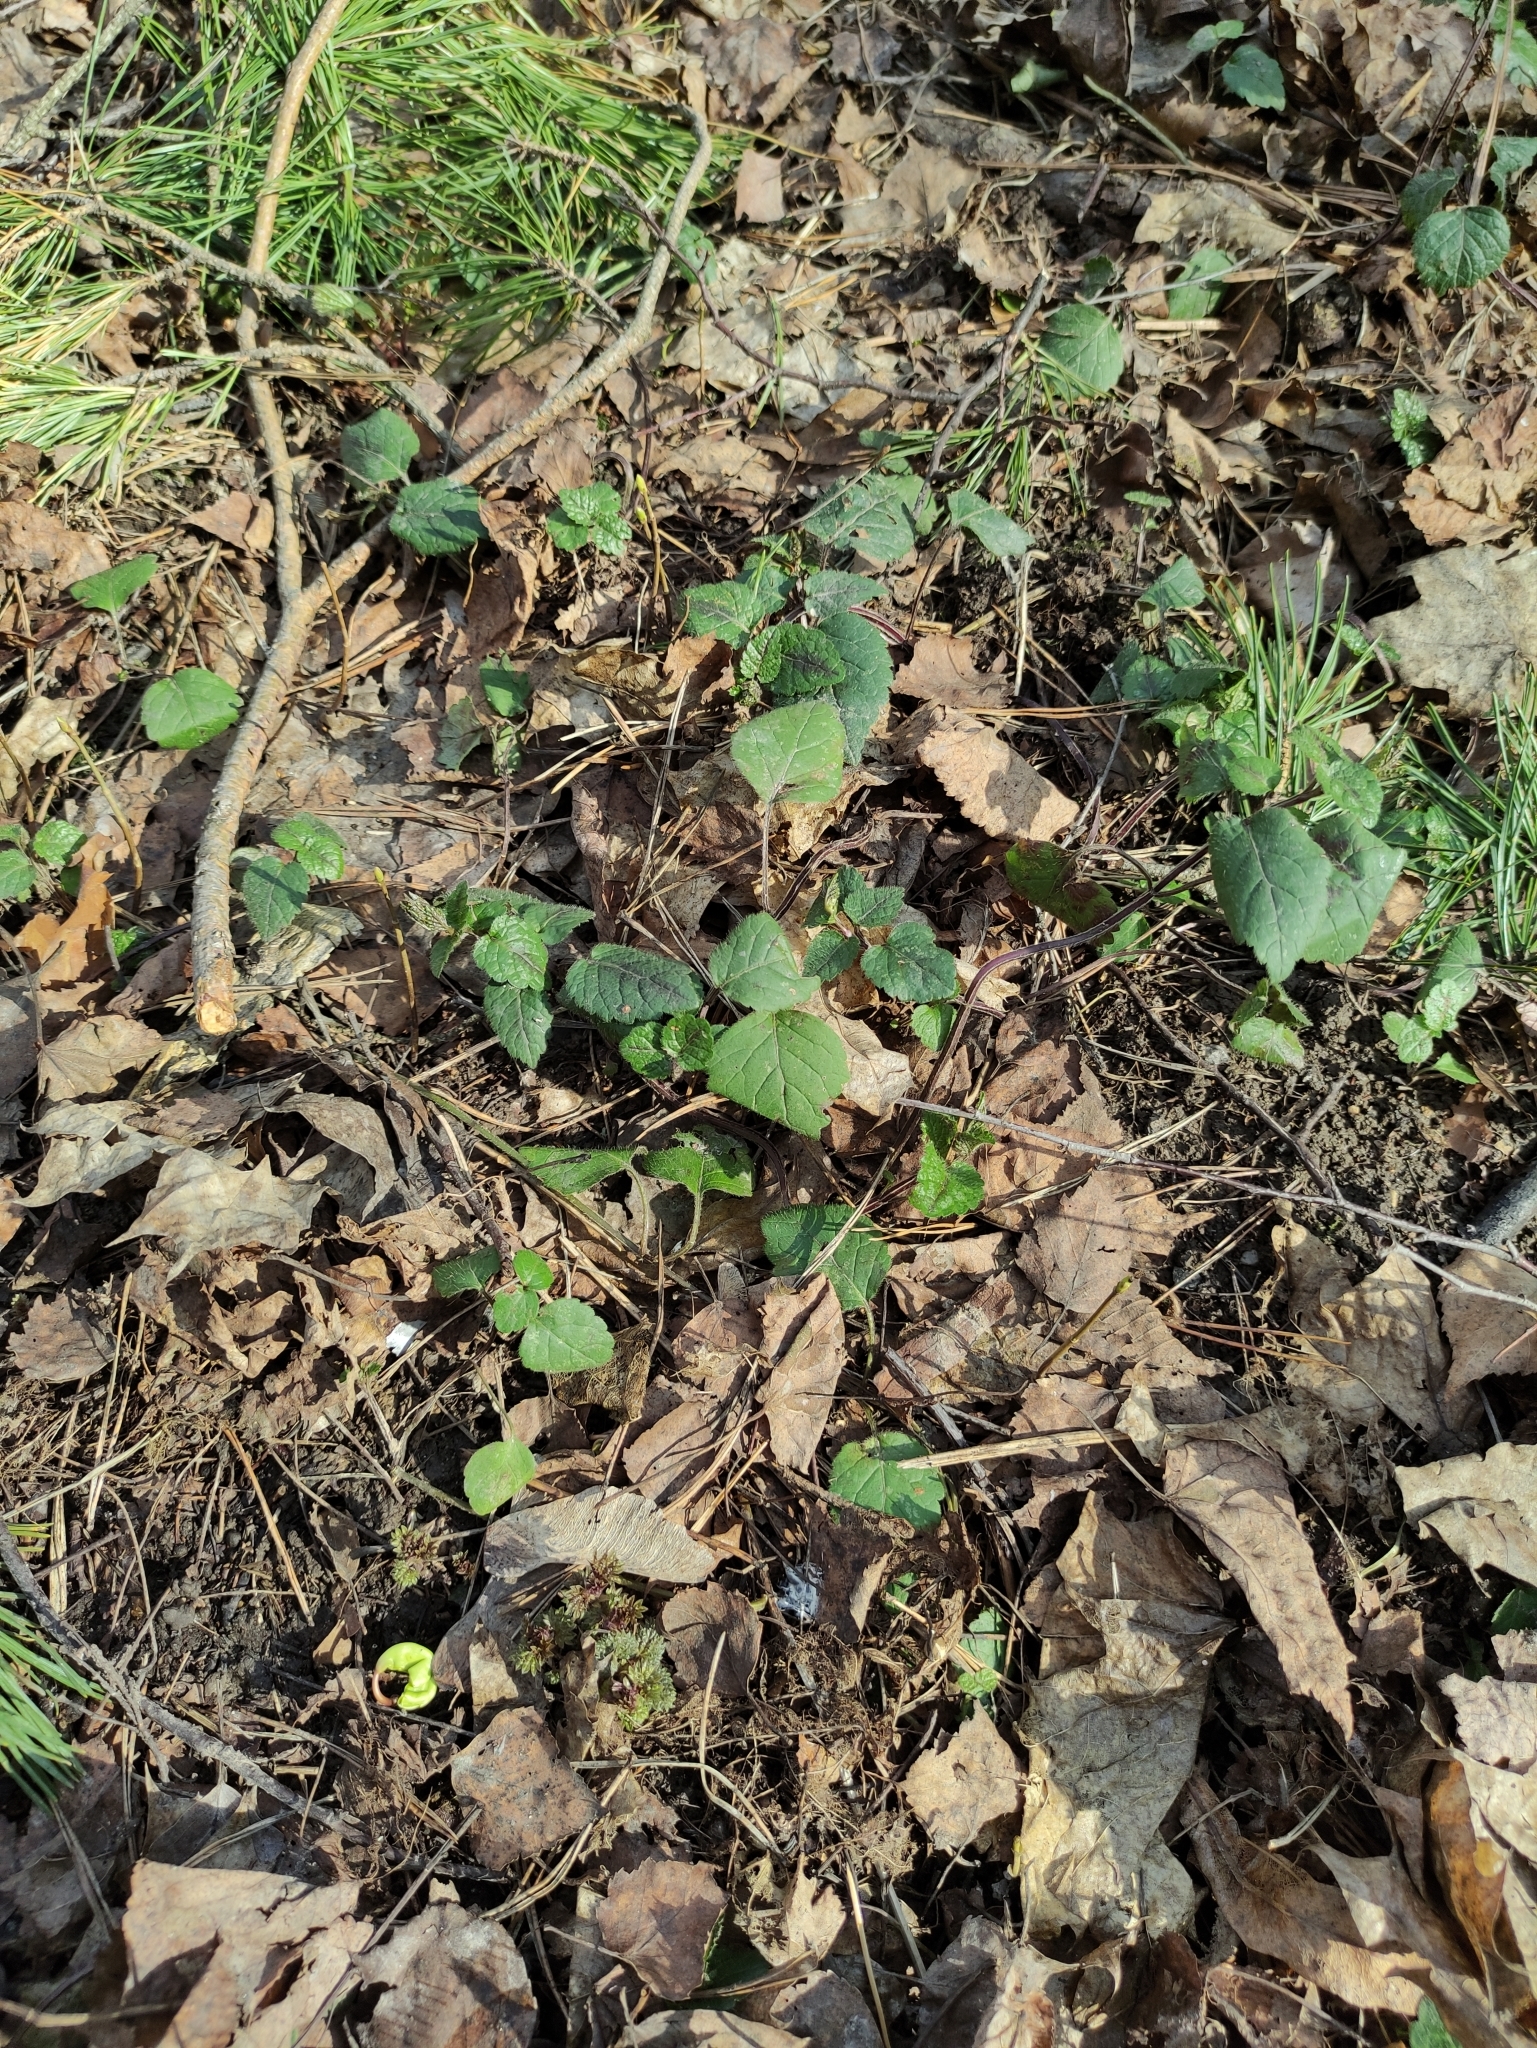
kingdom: Plantae
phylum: Tracheophyta
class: Magnoliopsida
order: Lamiales
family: Lamiaceae
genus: Lamium
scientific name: Lamium galeobdolon
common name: Yellow archangel
